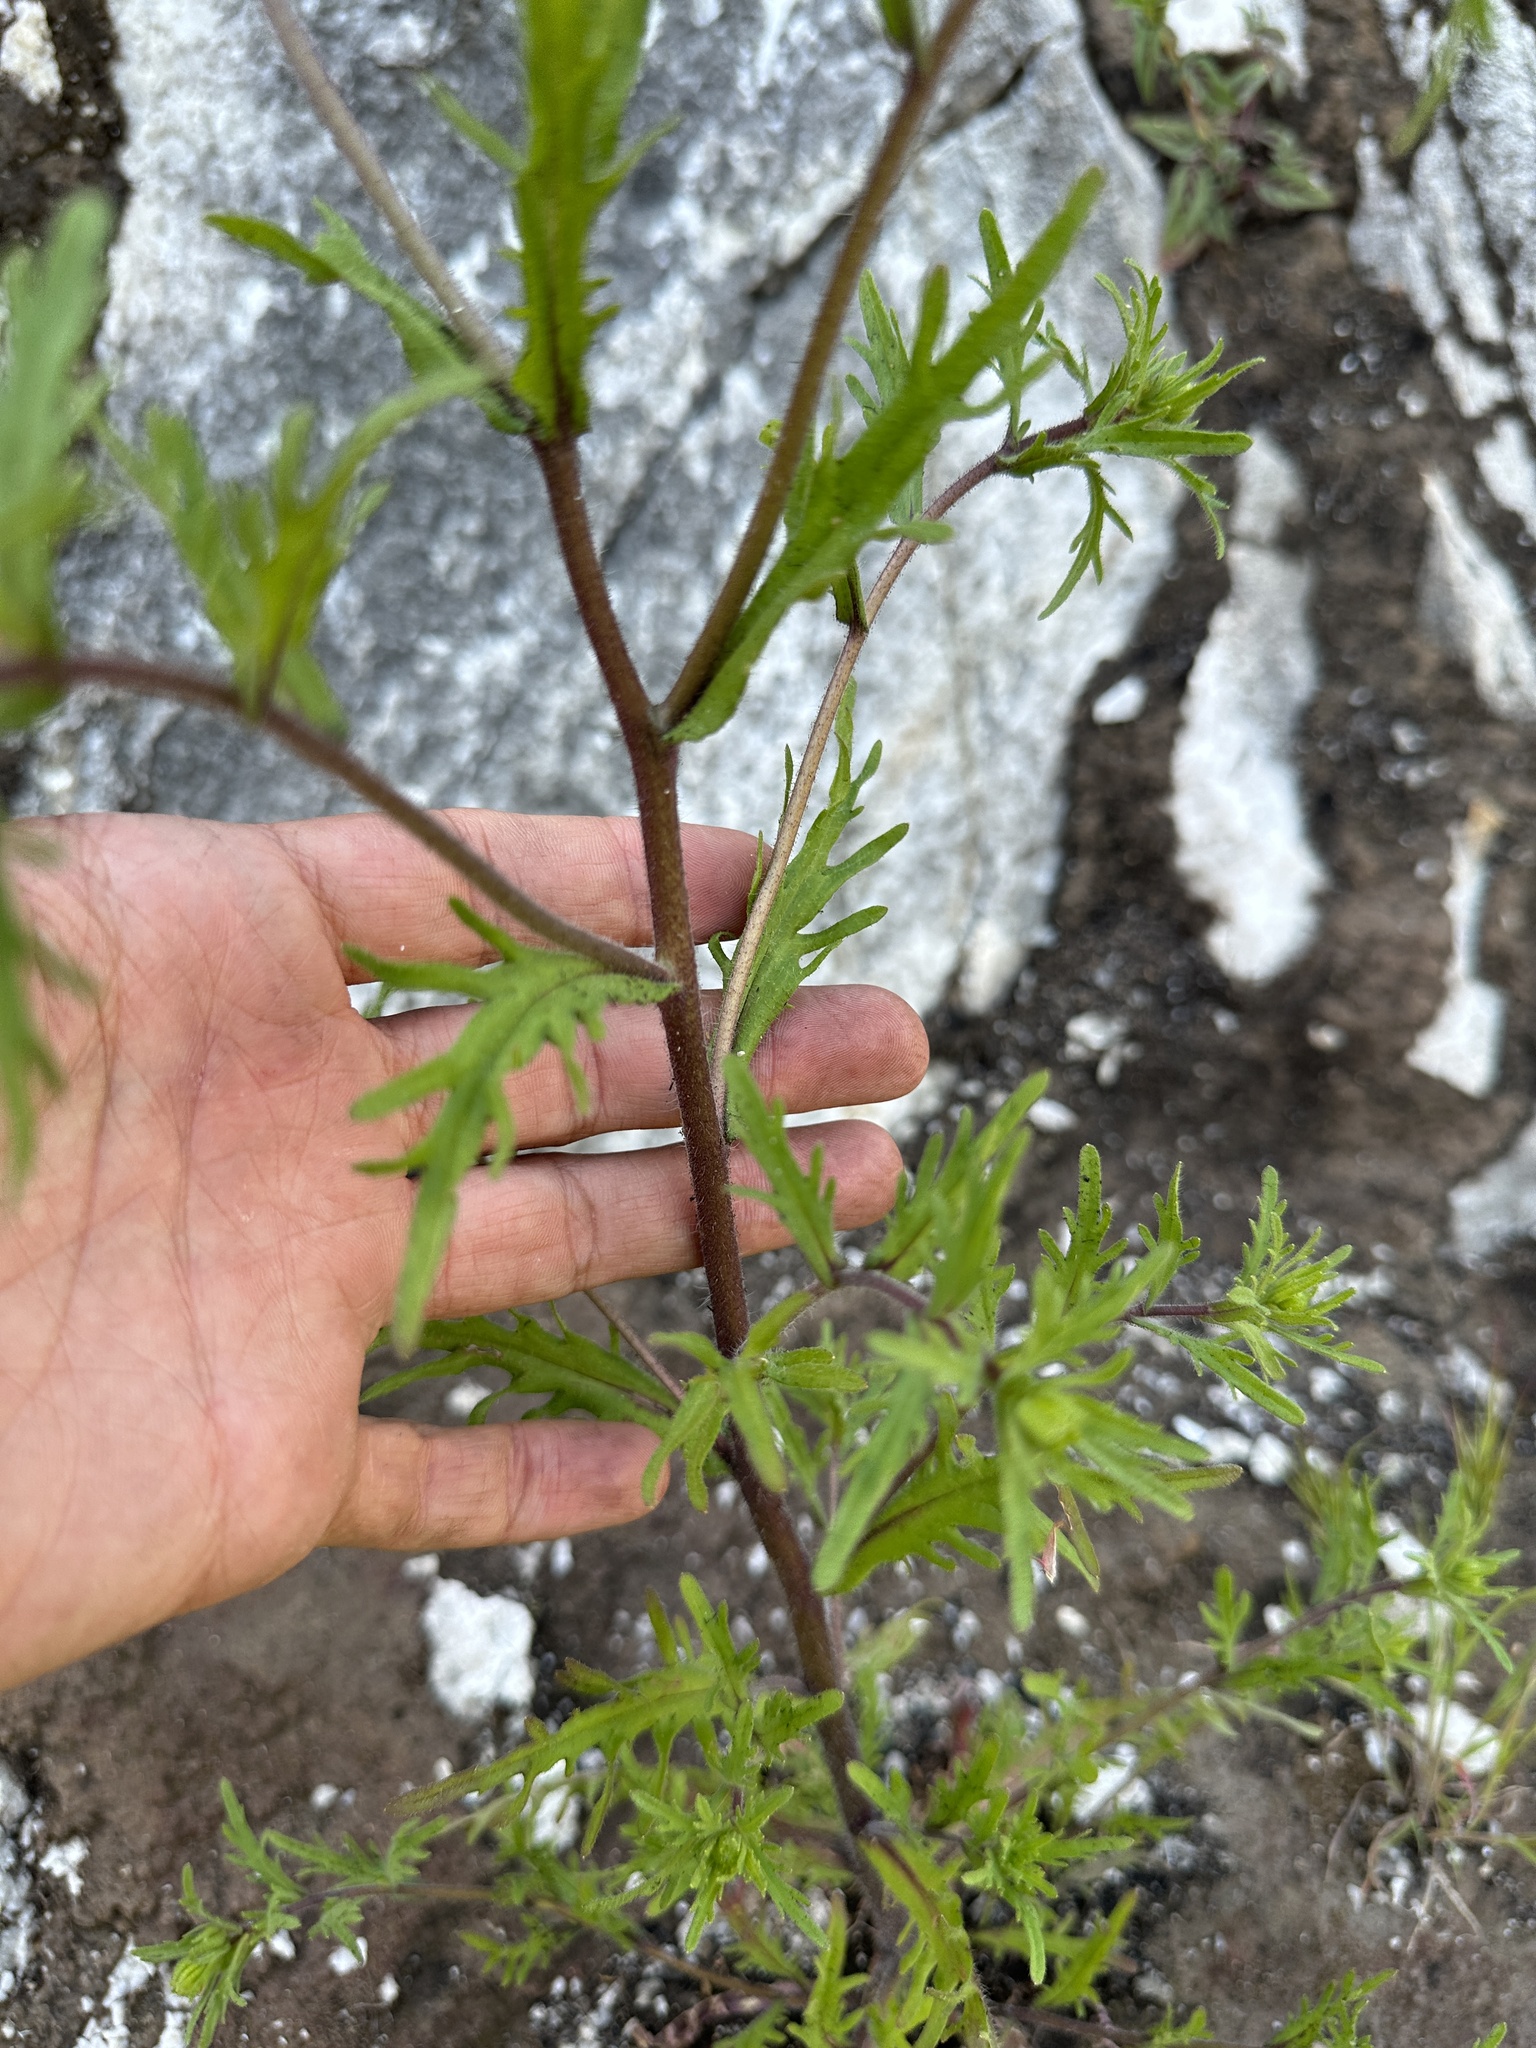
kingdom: Plantae
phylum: Tracheophyta
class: Magnoliopsida
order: Asterales
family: Asteraceae
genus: Layia
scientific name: Layia pentachaeta
